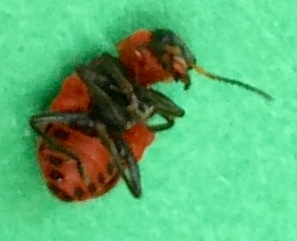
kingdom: Animalia
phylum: Arthropoda
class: Insecta
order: Coleoptera
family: Melyridae
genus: Collops
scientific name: Collops quadrimaculatus
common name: Four-spotted collops
